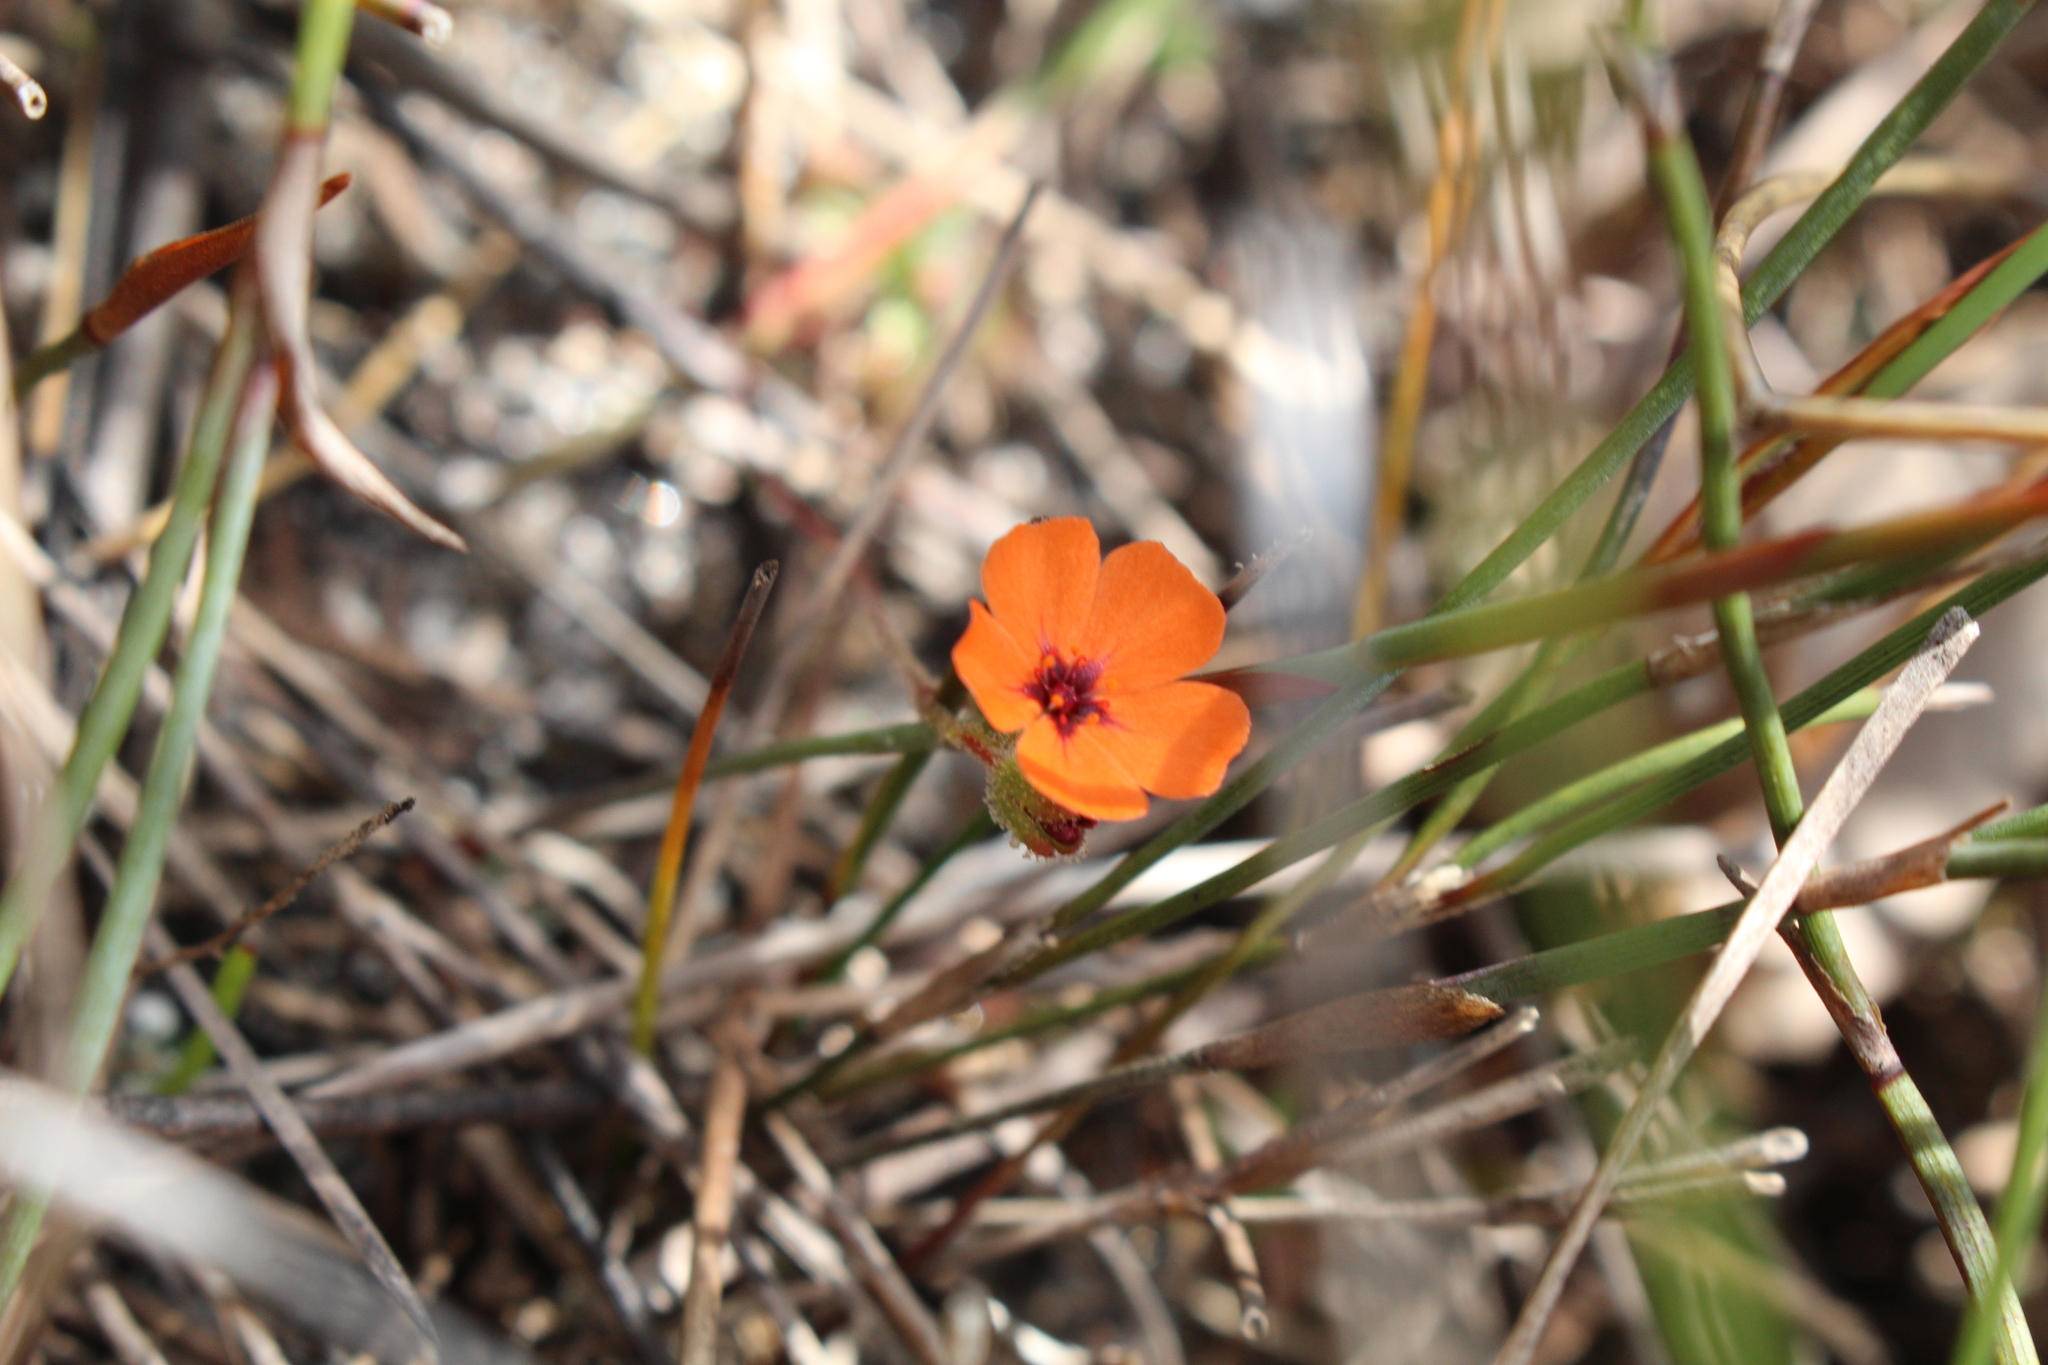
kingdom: Plantae
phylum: Tracheophyta
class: Magnoliopsida
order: Caryophyllales
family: Droseraceae
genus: Drosera
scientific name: Drosera pulchella
